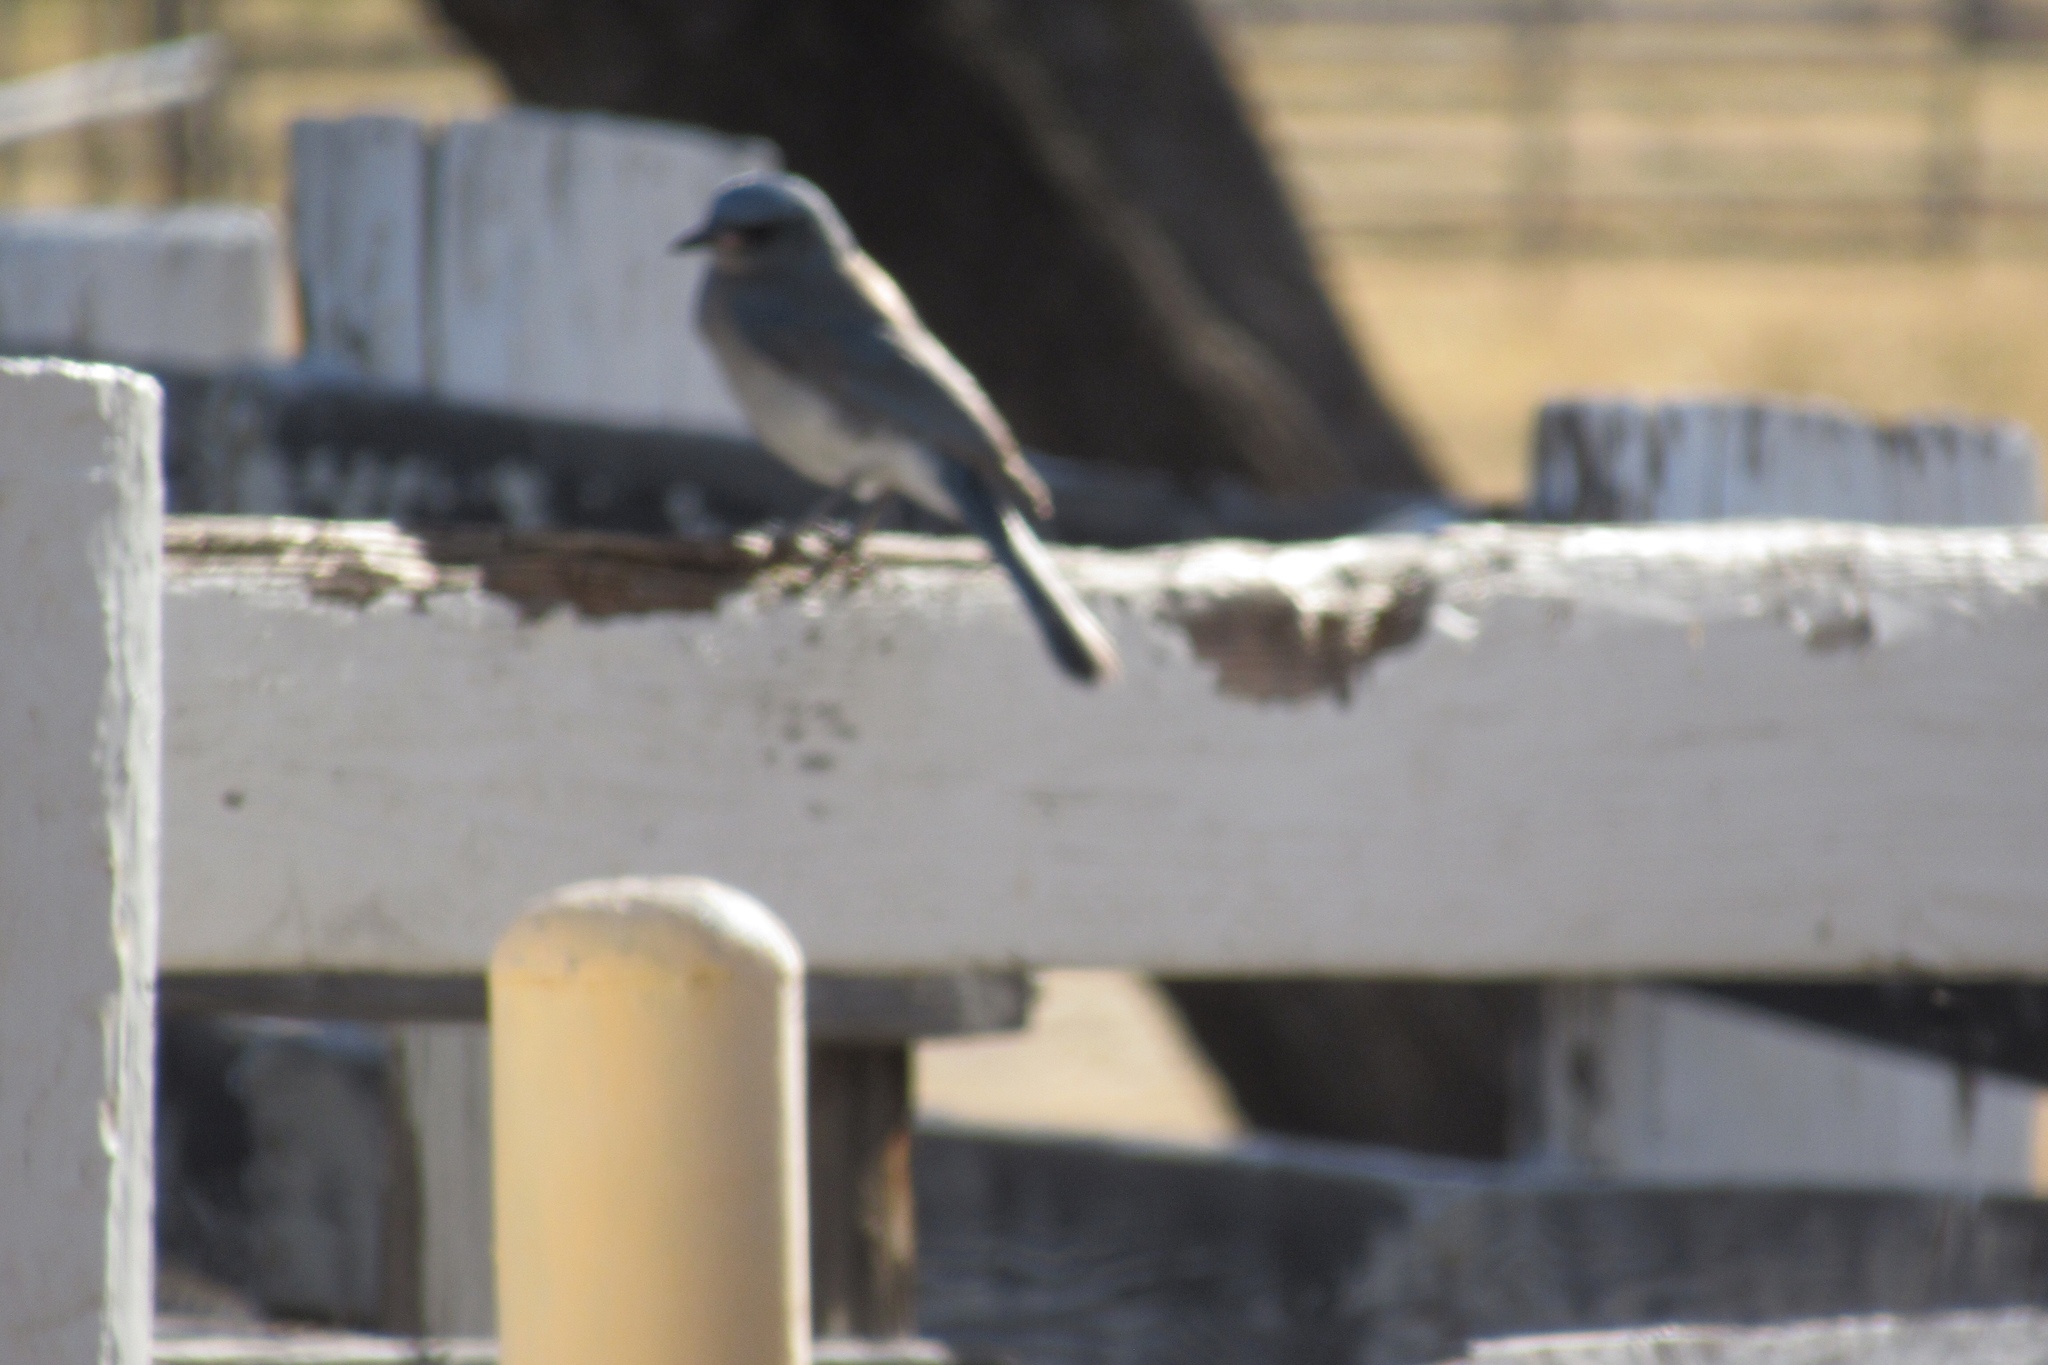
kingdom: Animalia
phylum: Chordata
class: Aves
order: Passeriformes
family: Corvidae
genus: Aphelocoma
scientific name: Aphelocoma wollweberi
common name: Mexican jay
